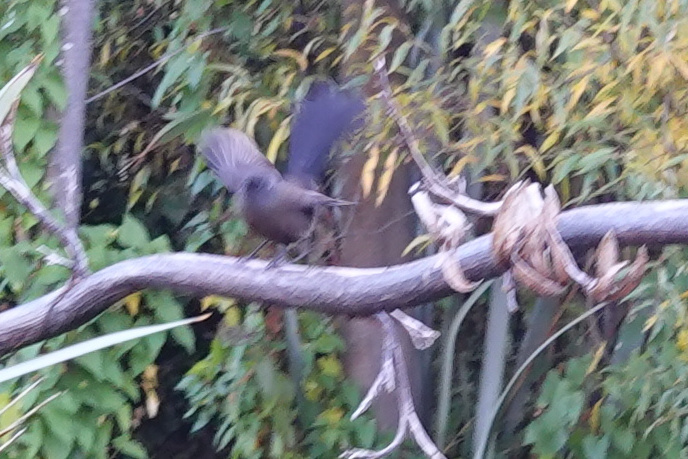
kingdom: Animalia
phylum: Chordata
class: Aves
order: Passeriformes
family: Rhipiduridae
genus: Rhipidura
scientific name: Rhipidura fuliginosa
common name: New zealand fantail
